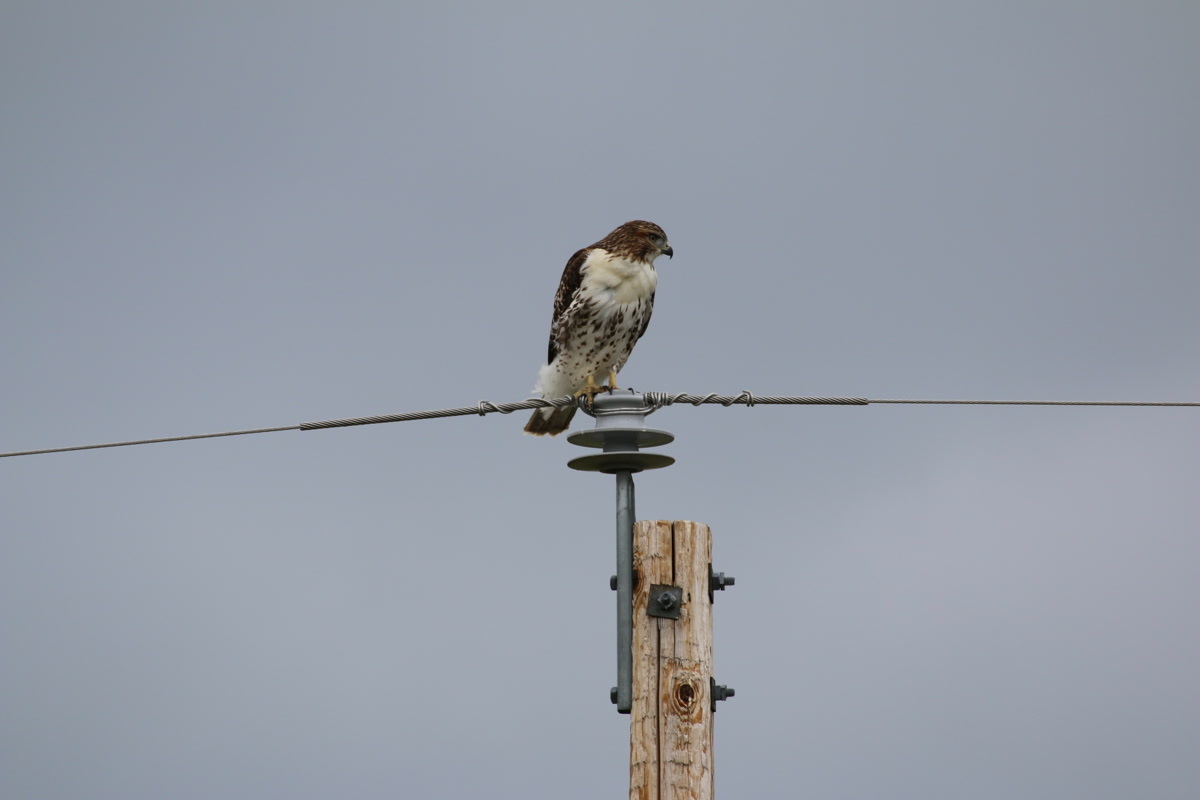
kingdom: Animalia
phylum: Chordata
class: Aves
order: Accipitriformes
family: Accipitridae
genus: Buteo
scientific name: Buteo jamaicensis
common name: Red-tailed hawk
